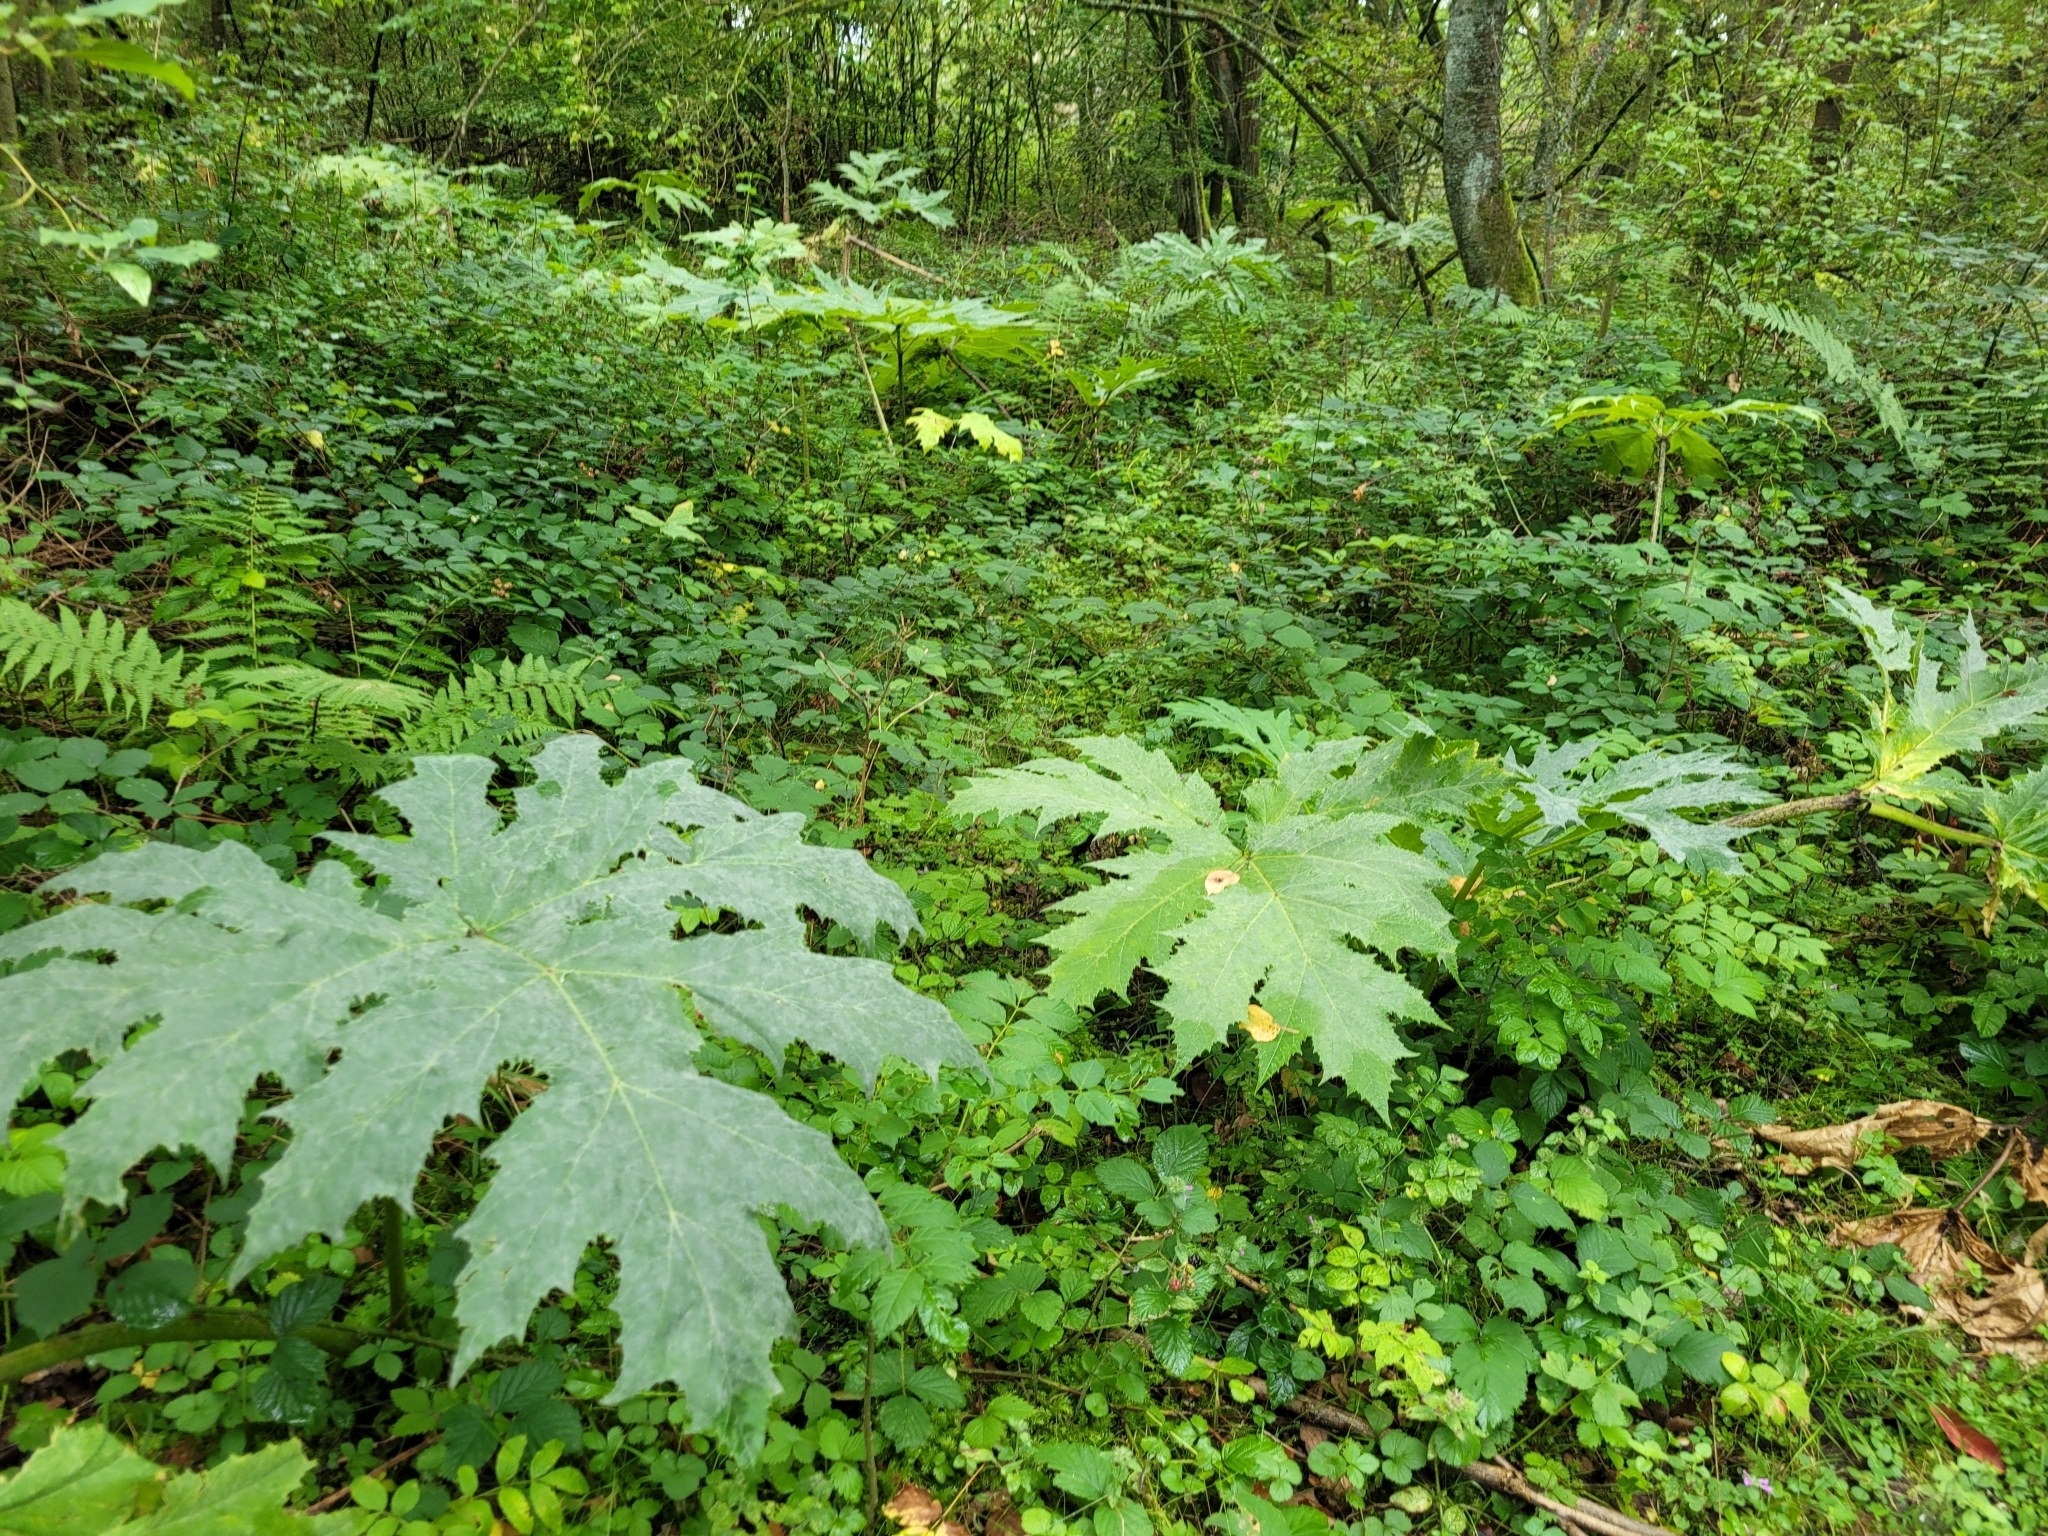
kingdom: Plantae
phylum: Tracheophyta
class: Magnoliopsida
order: Apiales
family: Apiaceae
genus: Heracleum
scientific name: Heracleum mantegazzianum
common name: Giant hogweed
